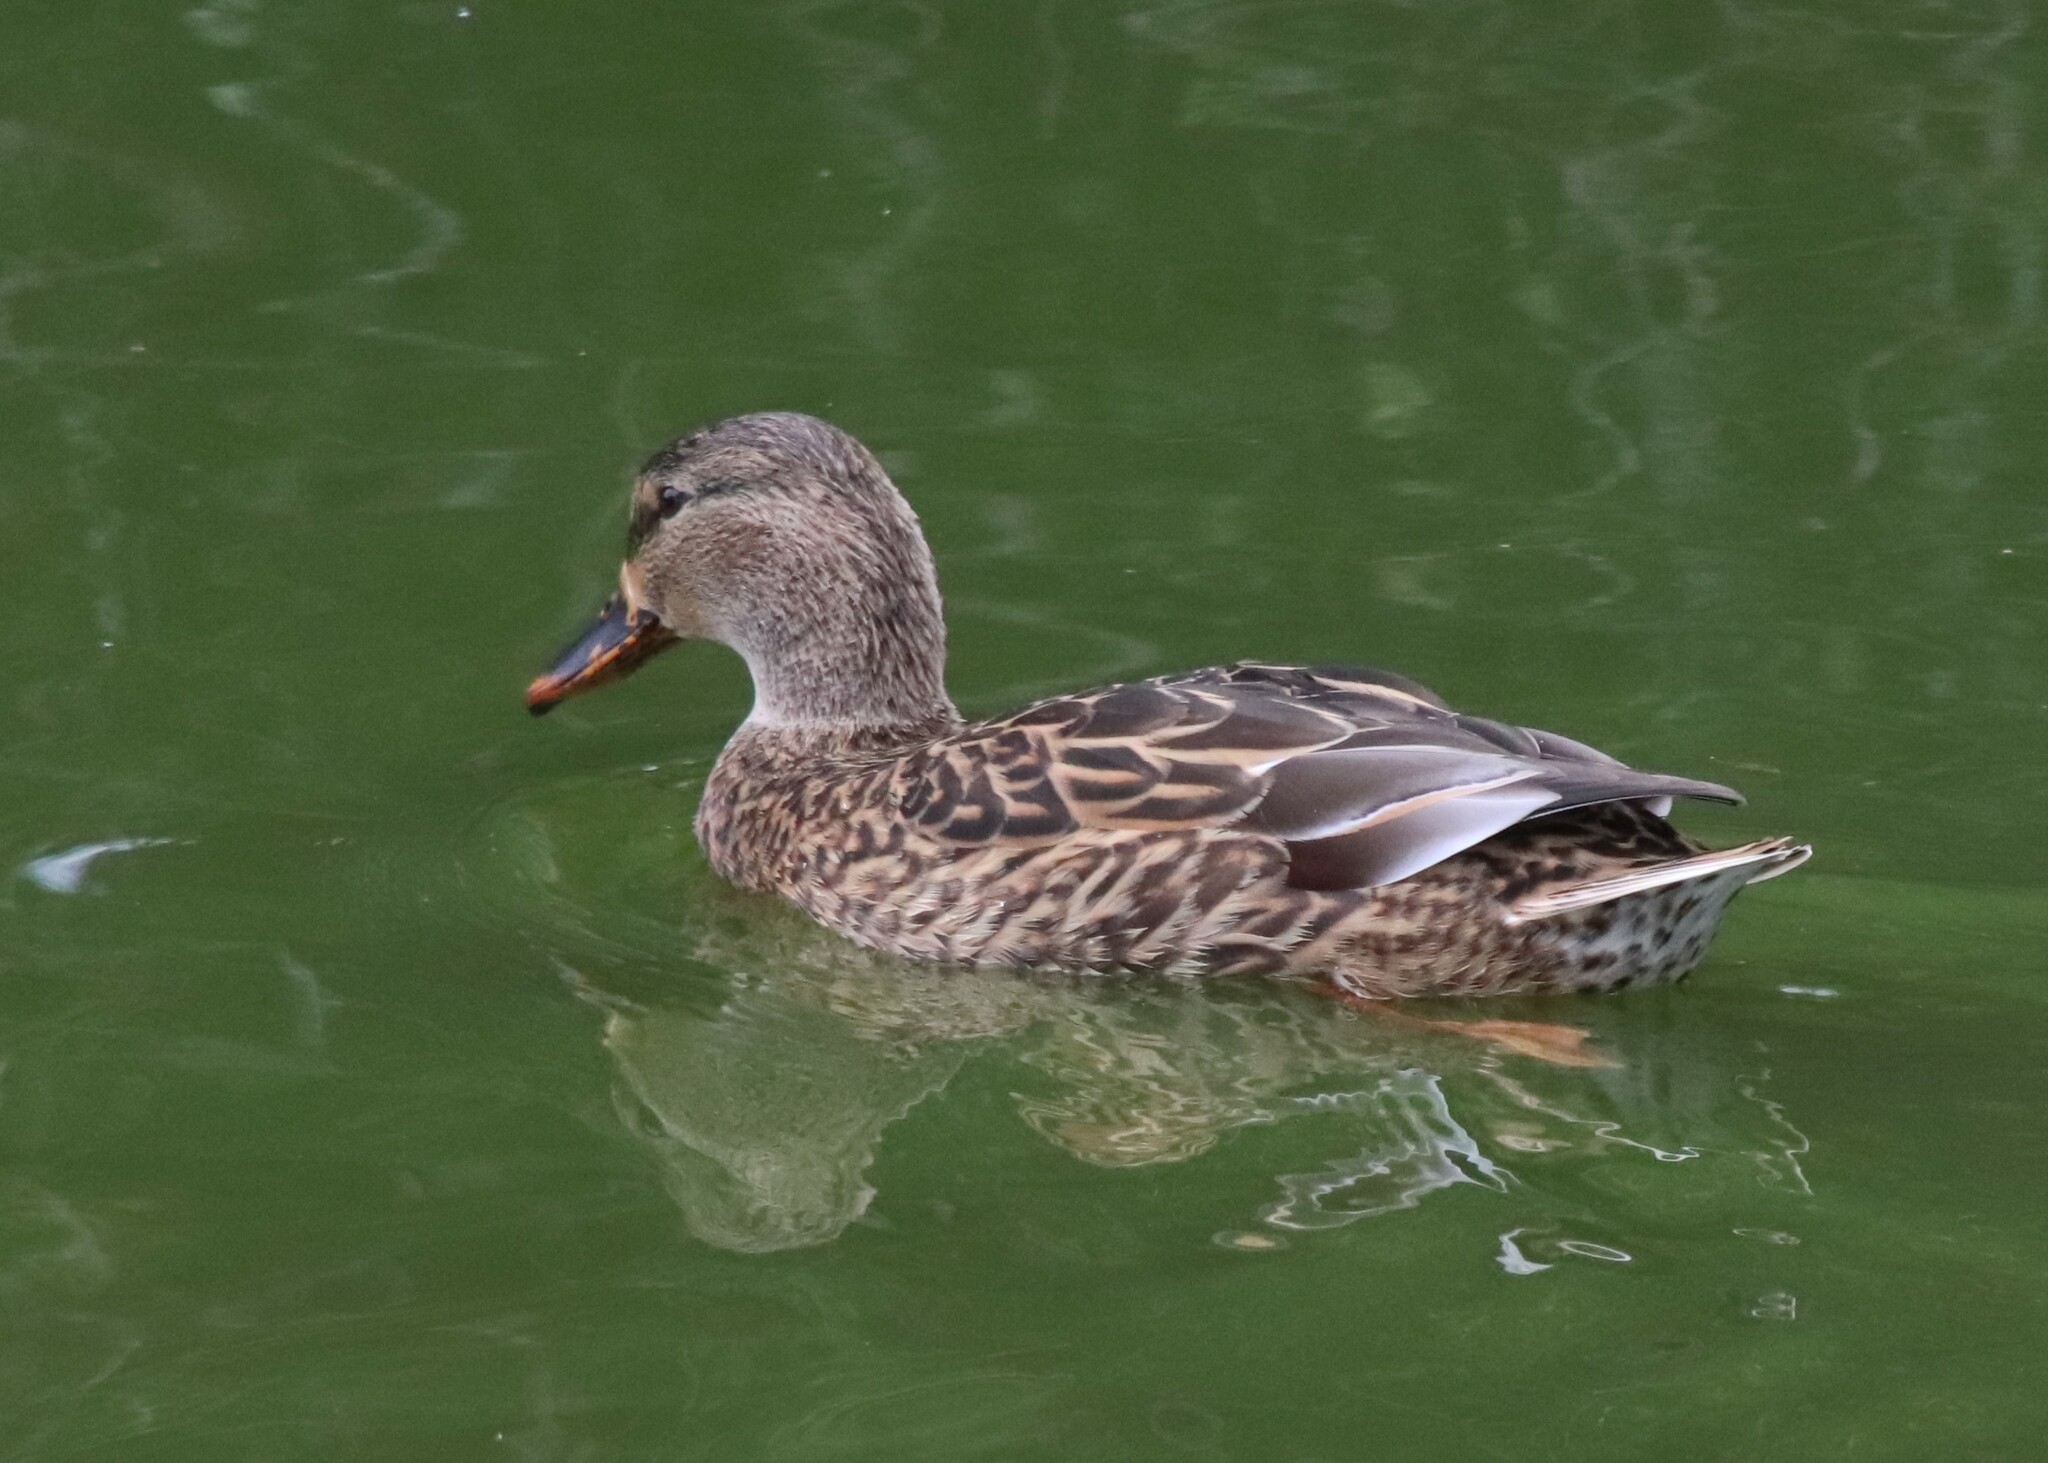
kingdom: Animalia
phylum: Chordata
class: Aves
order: Anseriformes
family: Anatidae
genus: Anas
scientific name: Anas platyrhynchos
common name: Mallard
